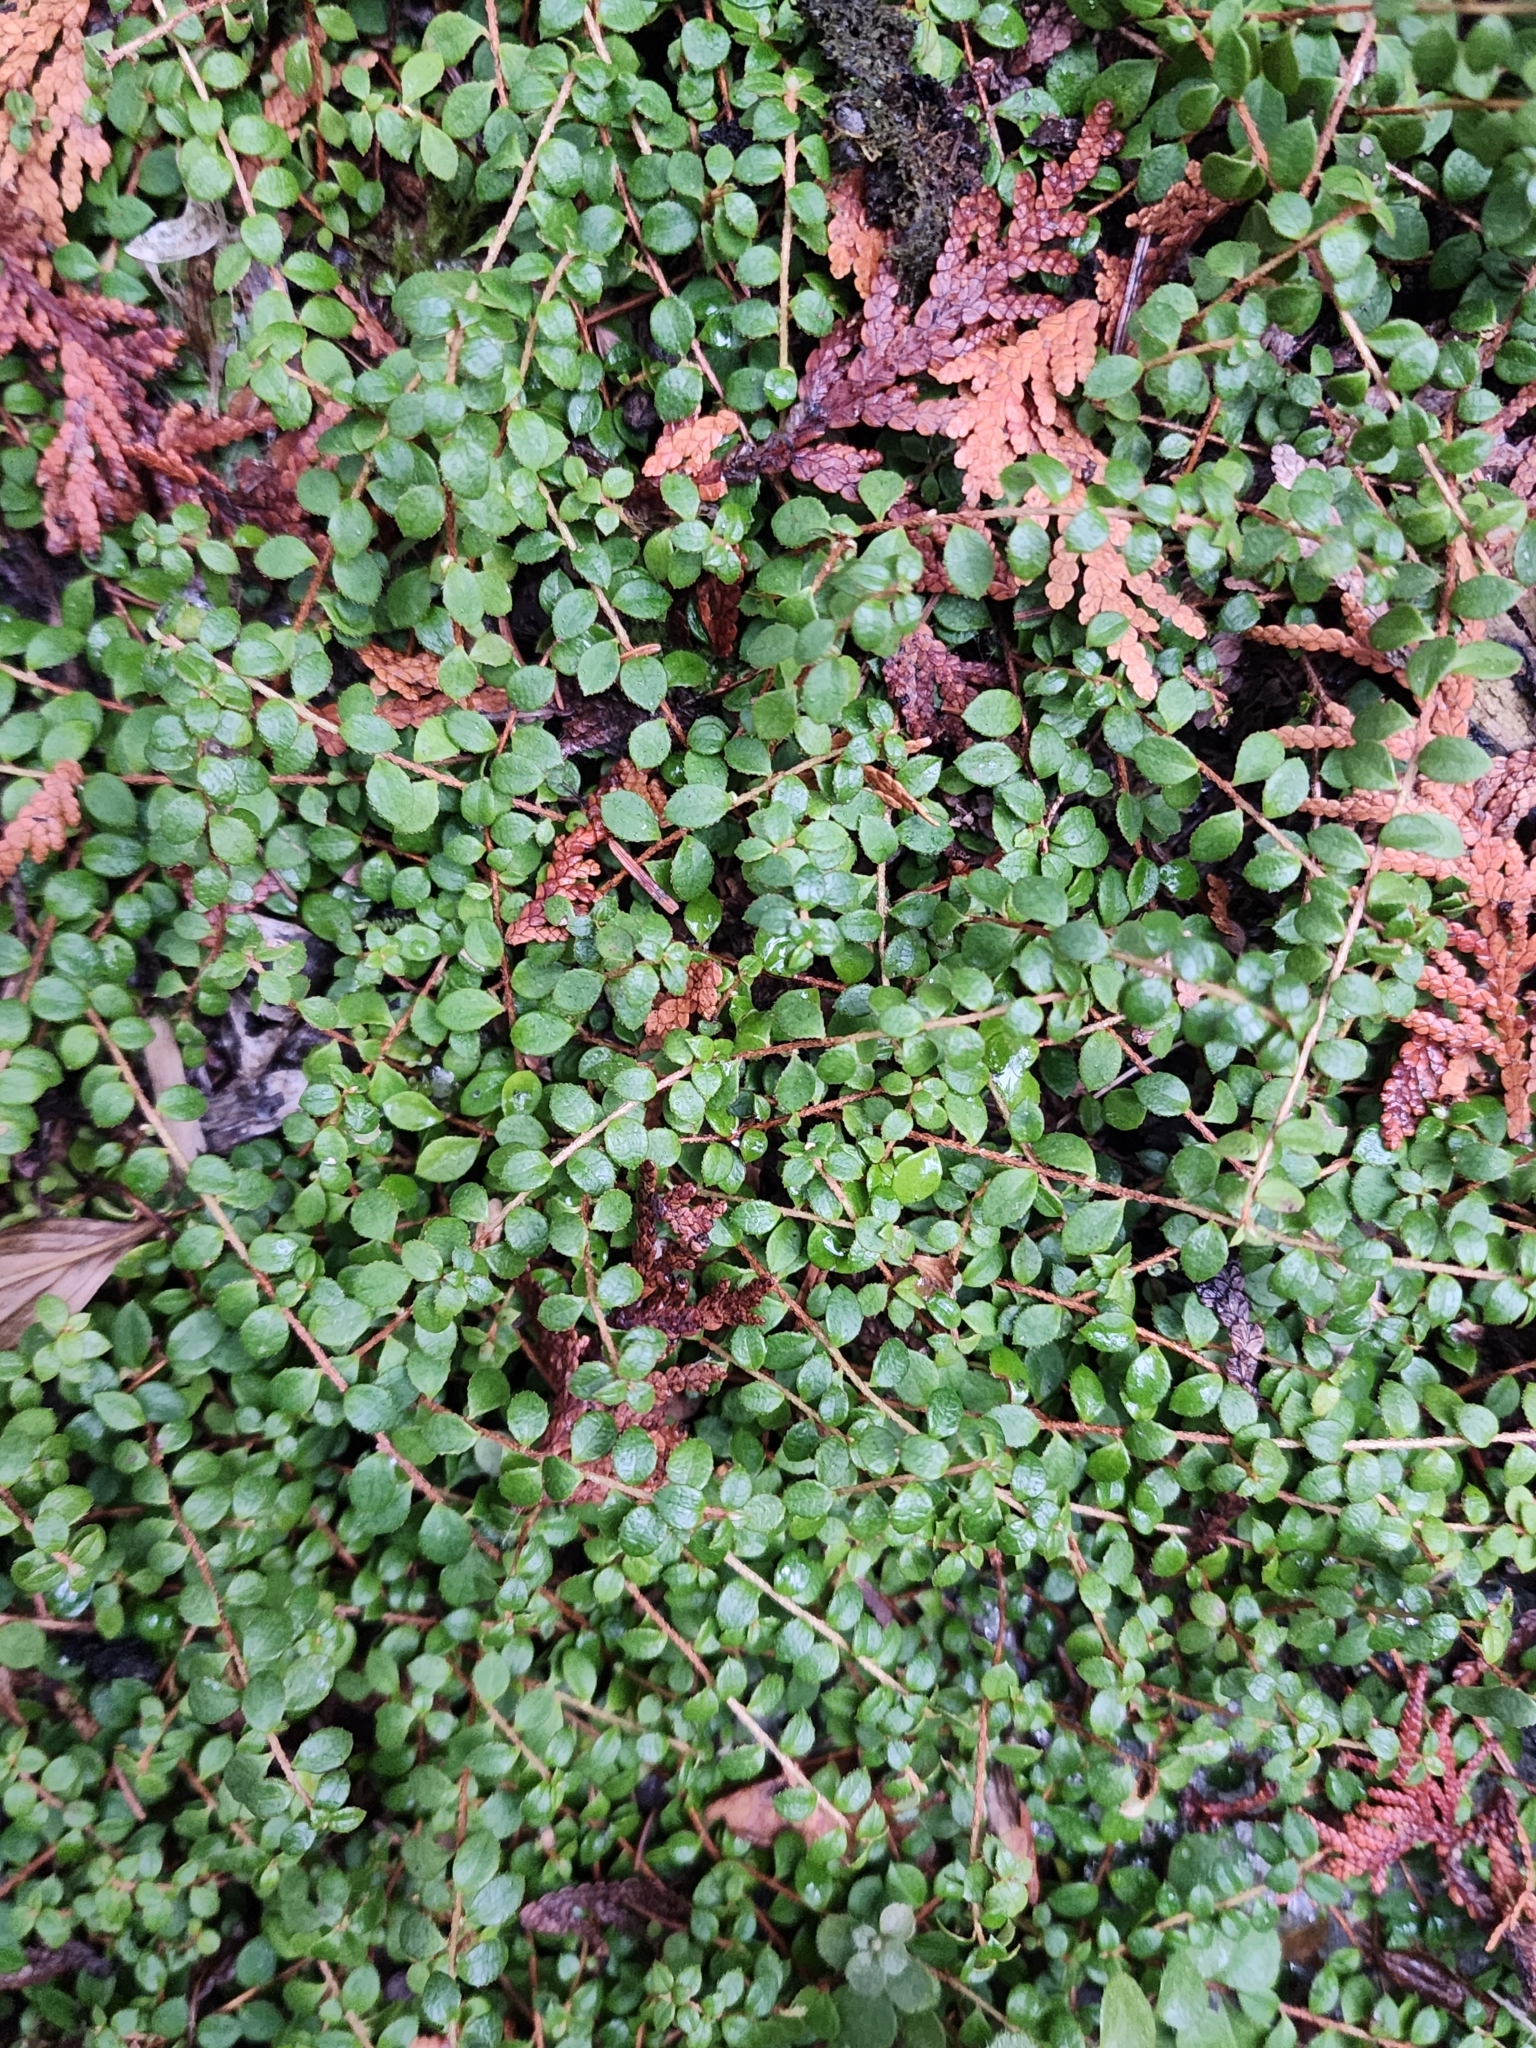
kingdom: Plantae
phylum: Tracheophyta
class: Magnoliopsida
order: Ericales
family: Ericaceae
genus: Gaultheria
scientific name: Gaultheria hispidula
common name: Cancer wintergreen
